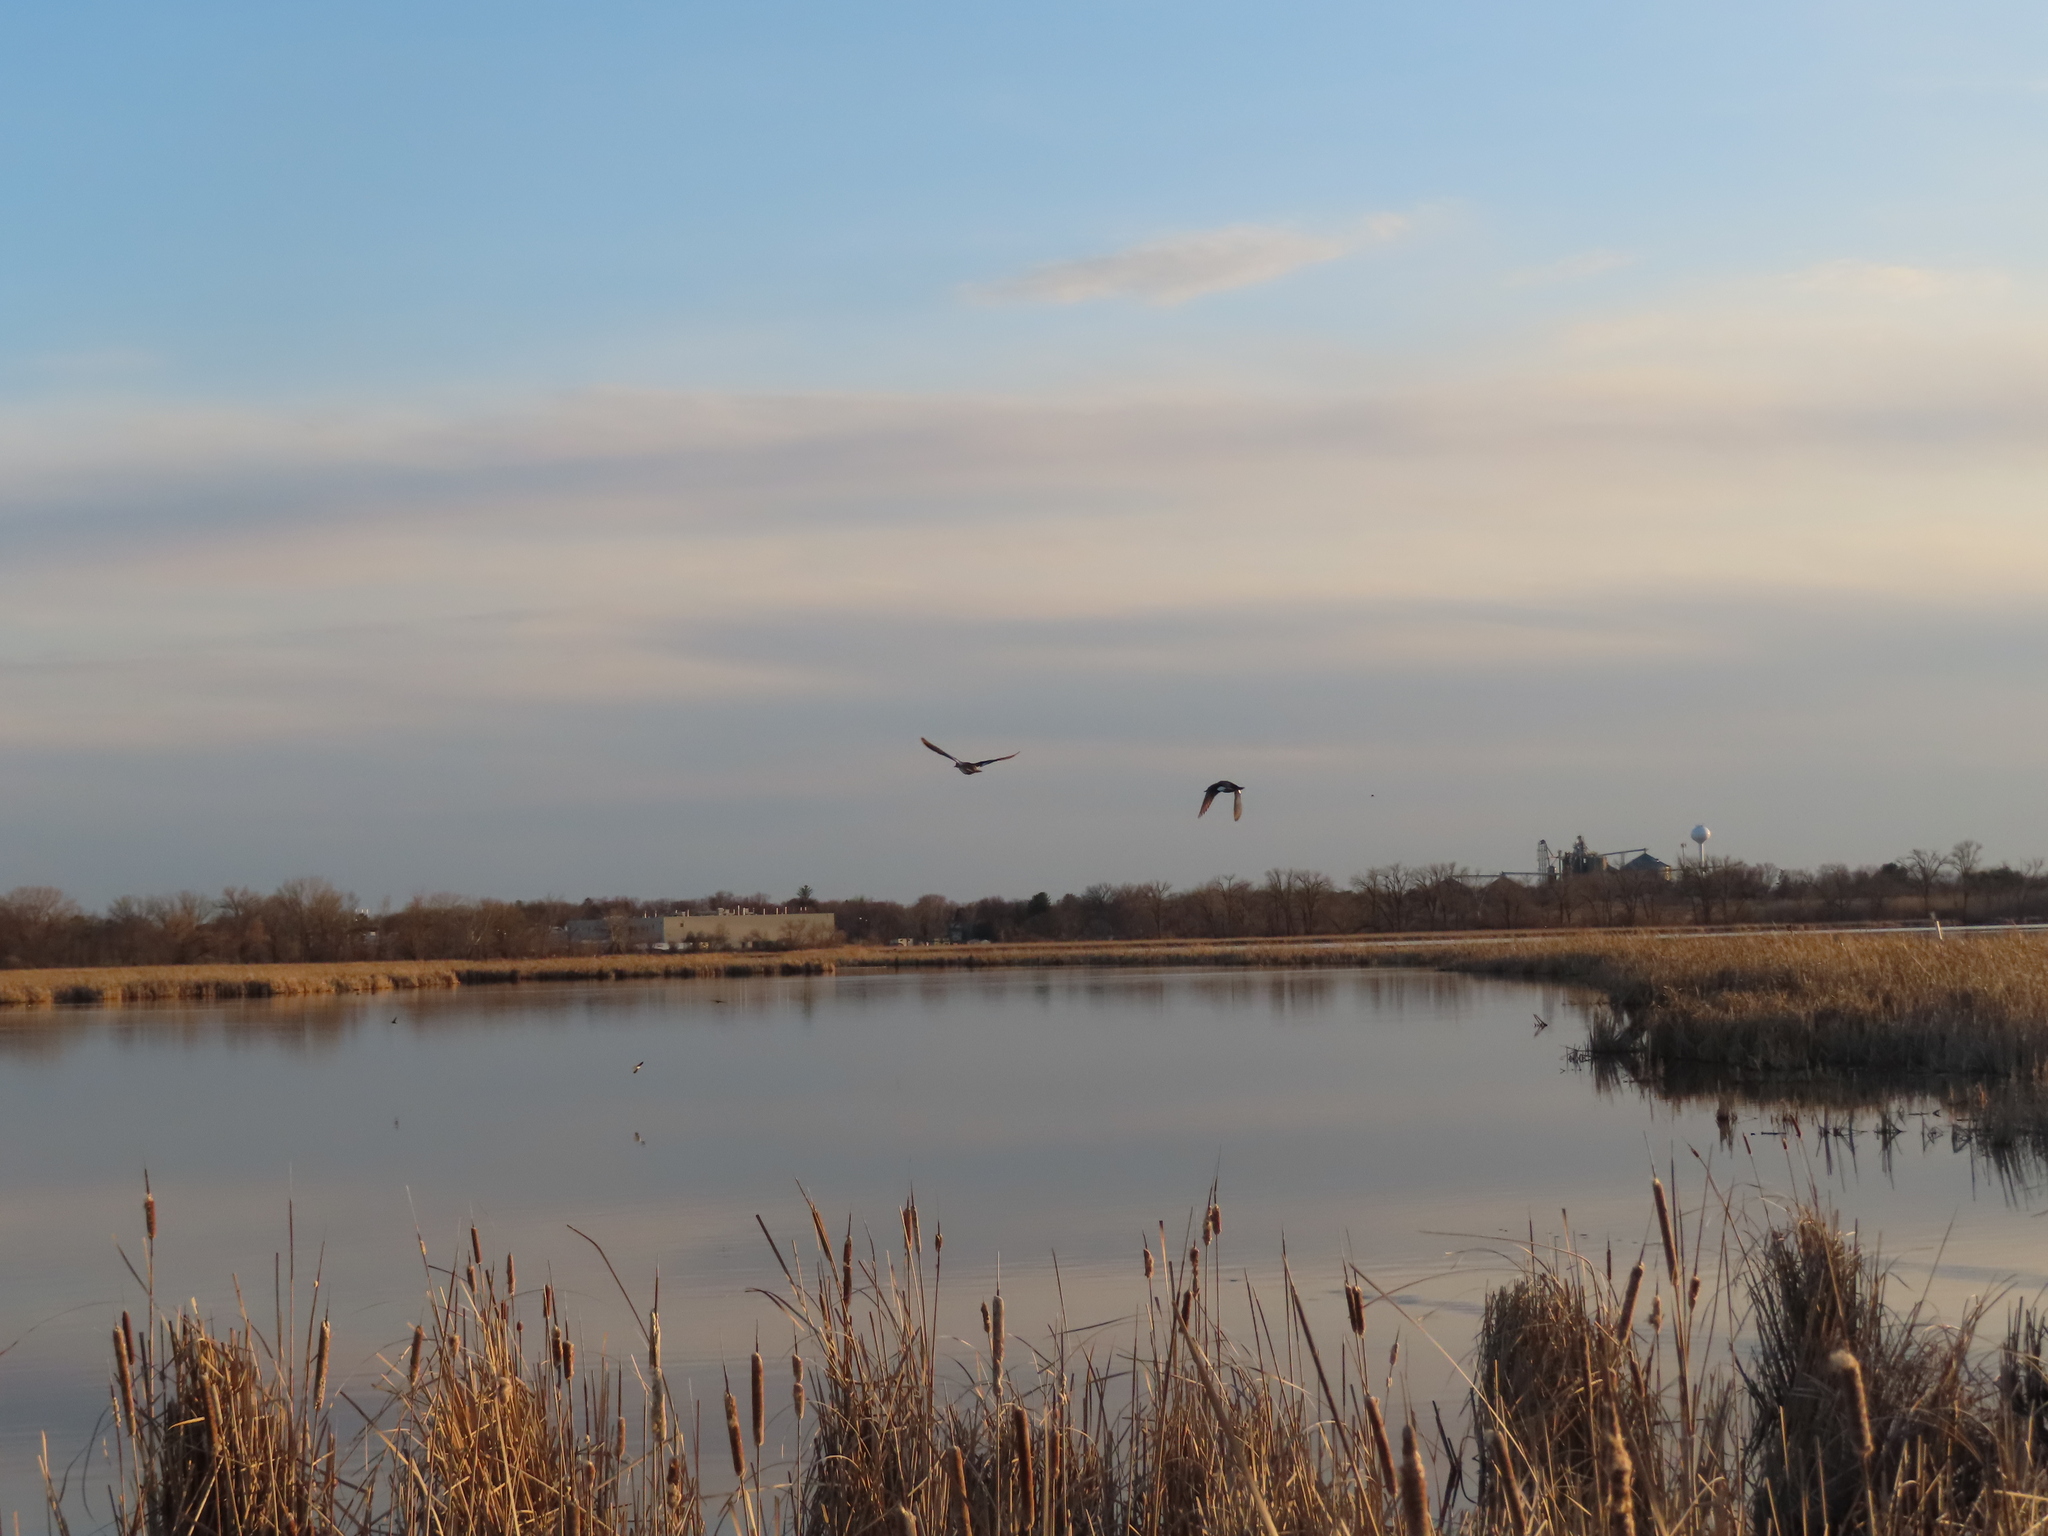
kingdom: Animalia
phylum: Chordata
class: Aves
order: Anseriformes
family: Anatidae
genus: Branta
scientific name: Branta canadensis
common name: Canada goose
